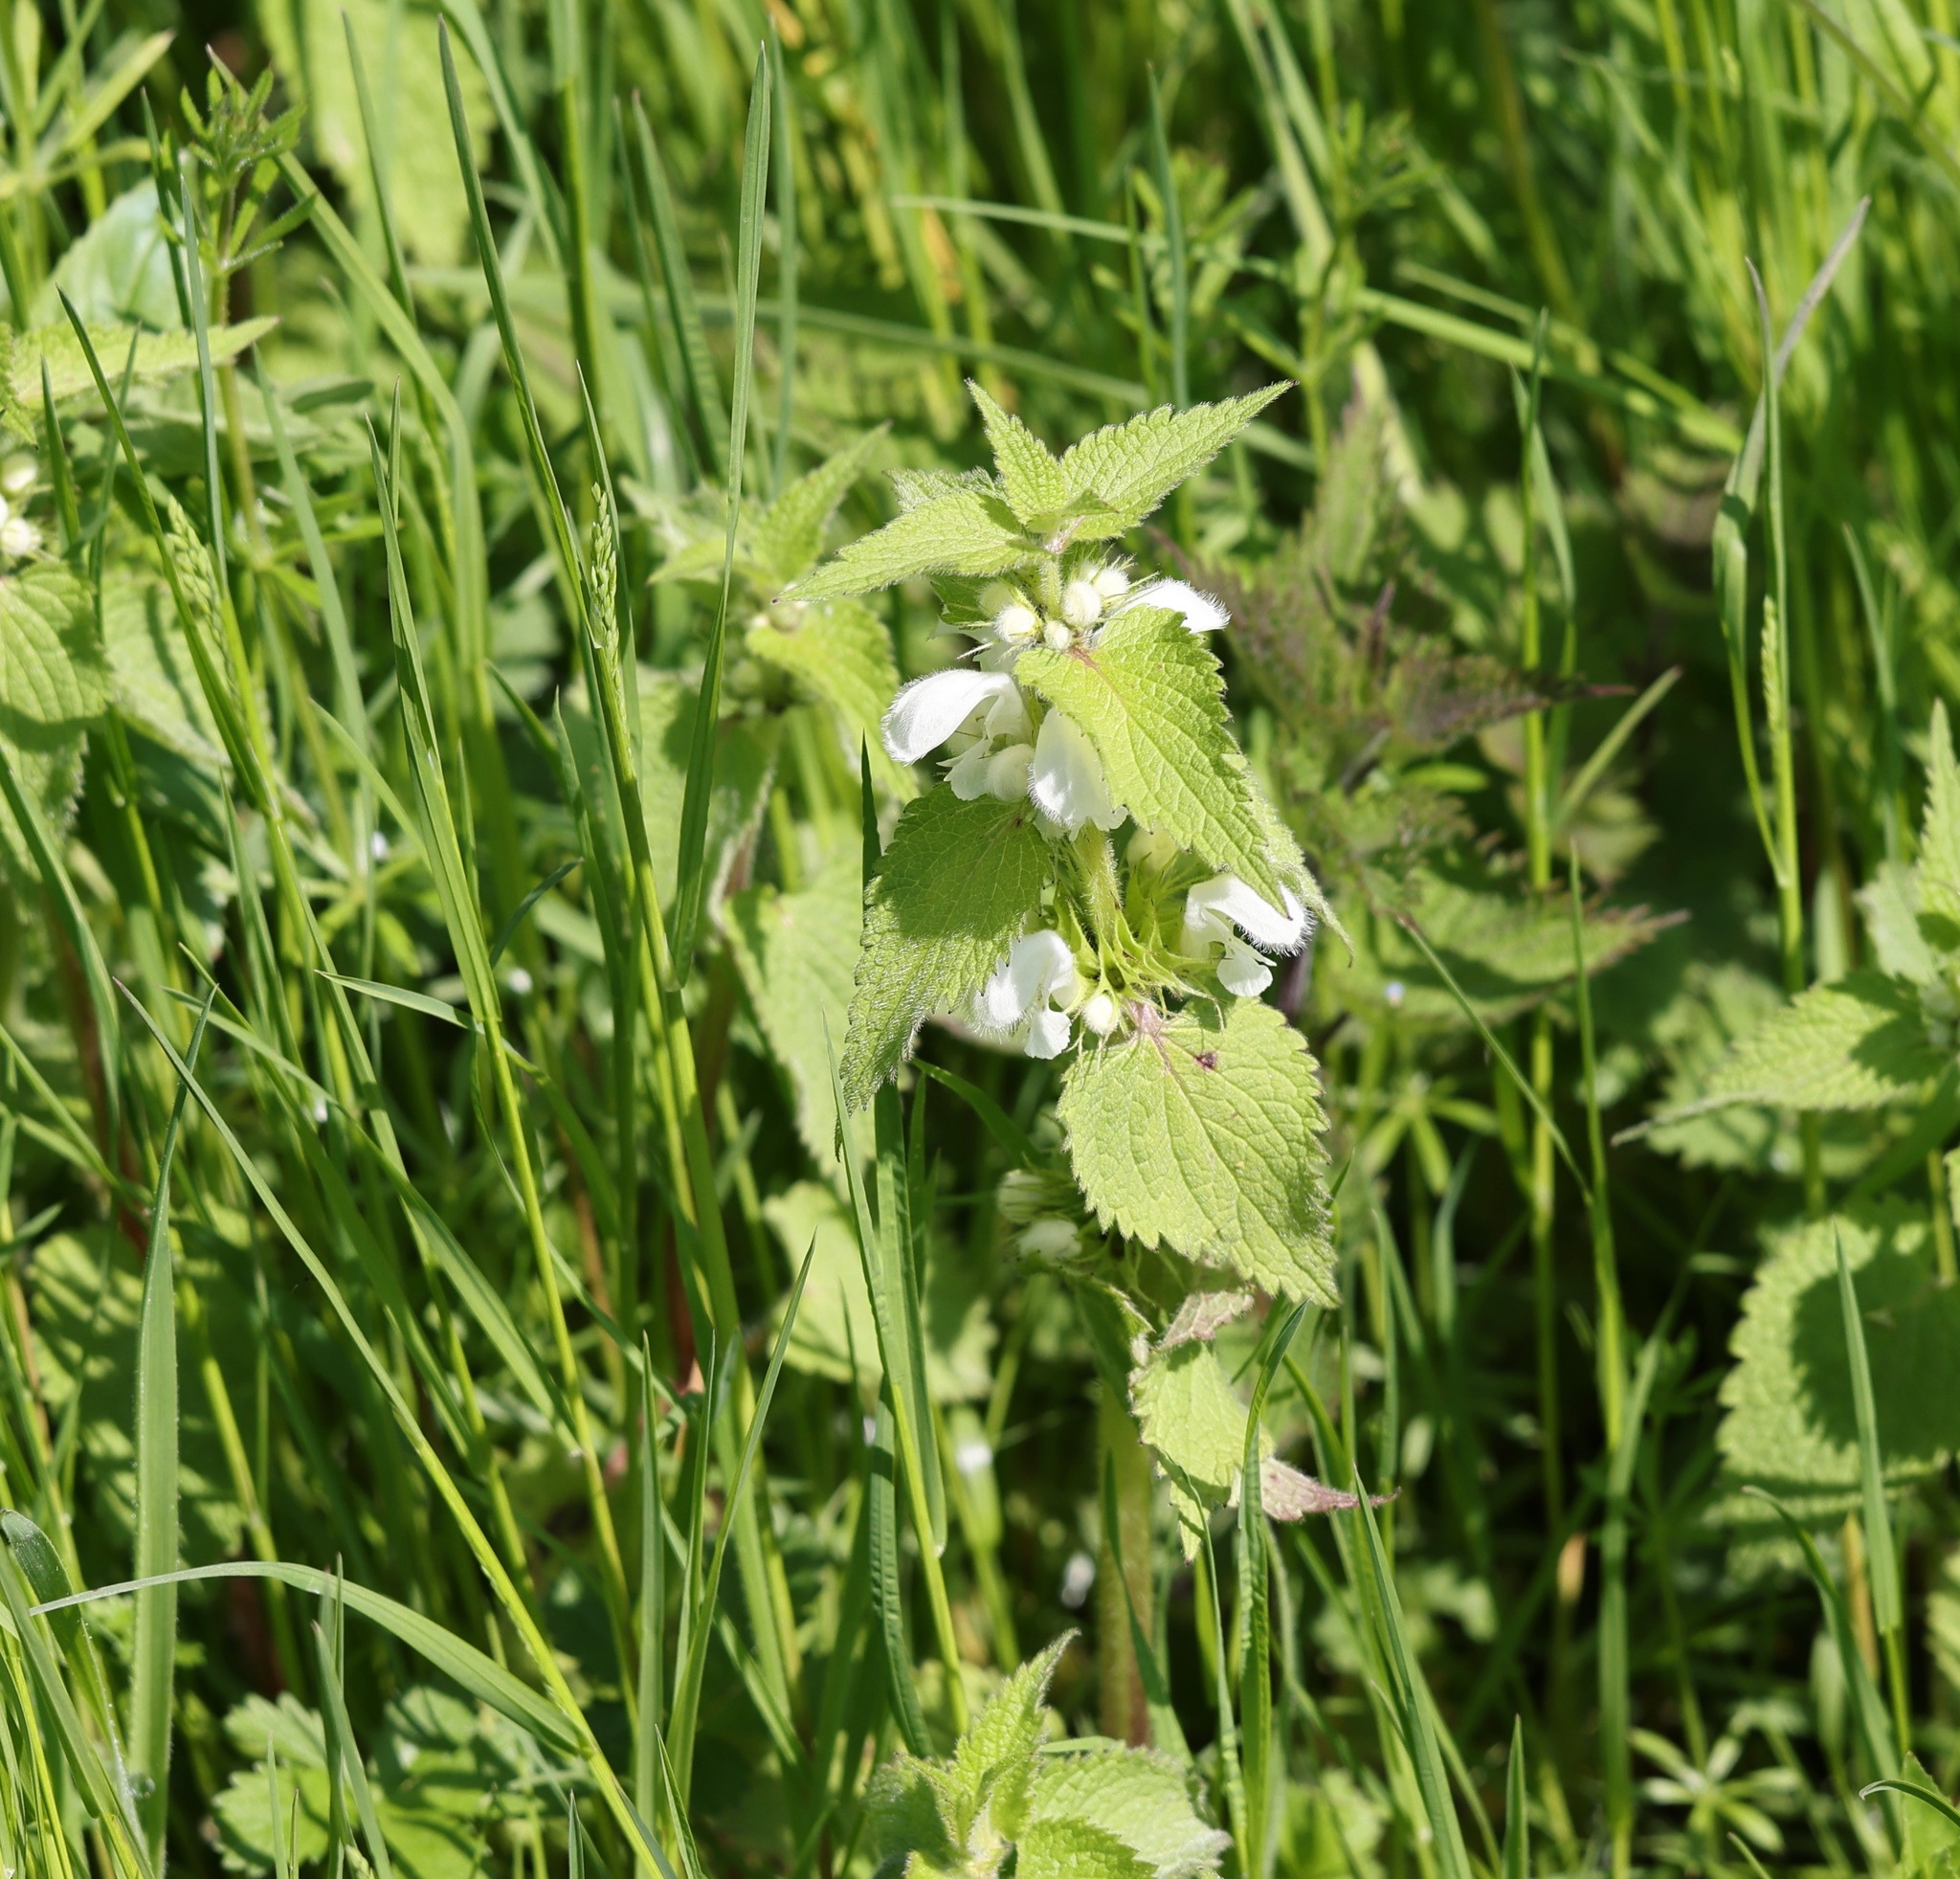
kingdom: Plantae
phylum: Tracheophyta
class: Magnoliopsida
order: Lamiales
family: Lamiaceae
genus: Lamium
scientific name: Lamium album
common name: White dead-nettle
